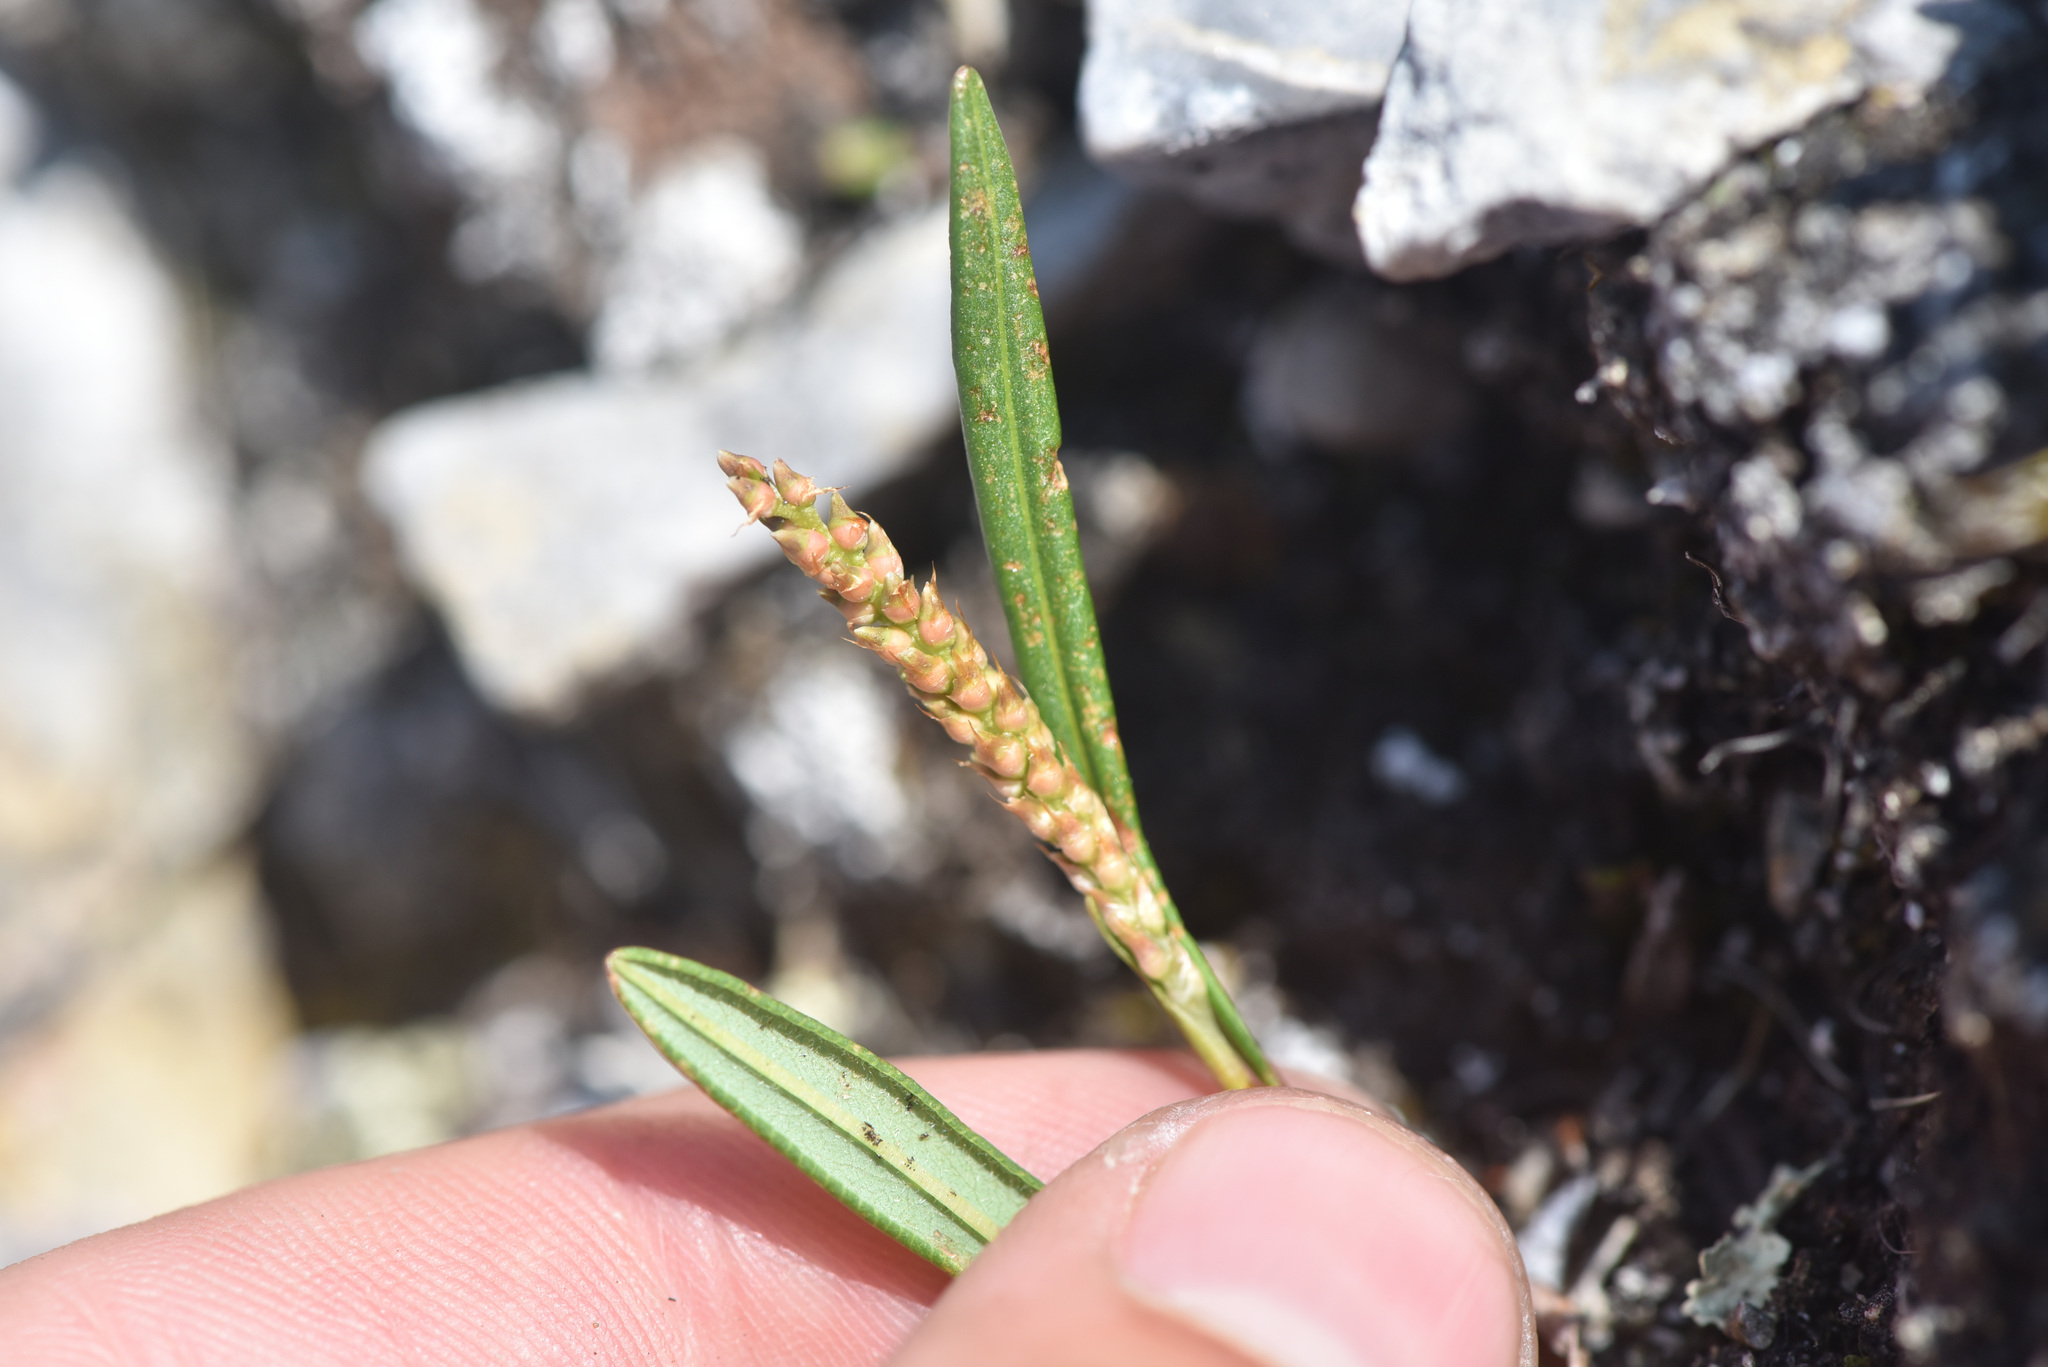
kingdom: Plantae
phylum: Tracheophyta
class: Magnoliopsida
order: Caryophyllales
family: Polygonaceae
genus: Bistorta
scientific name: Bistorta vivipara
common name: Alpine bistort
